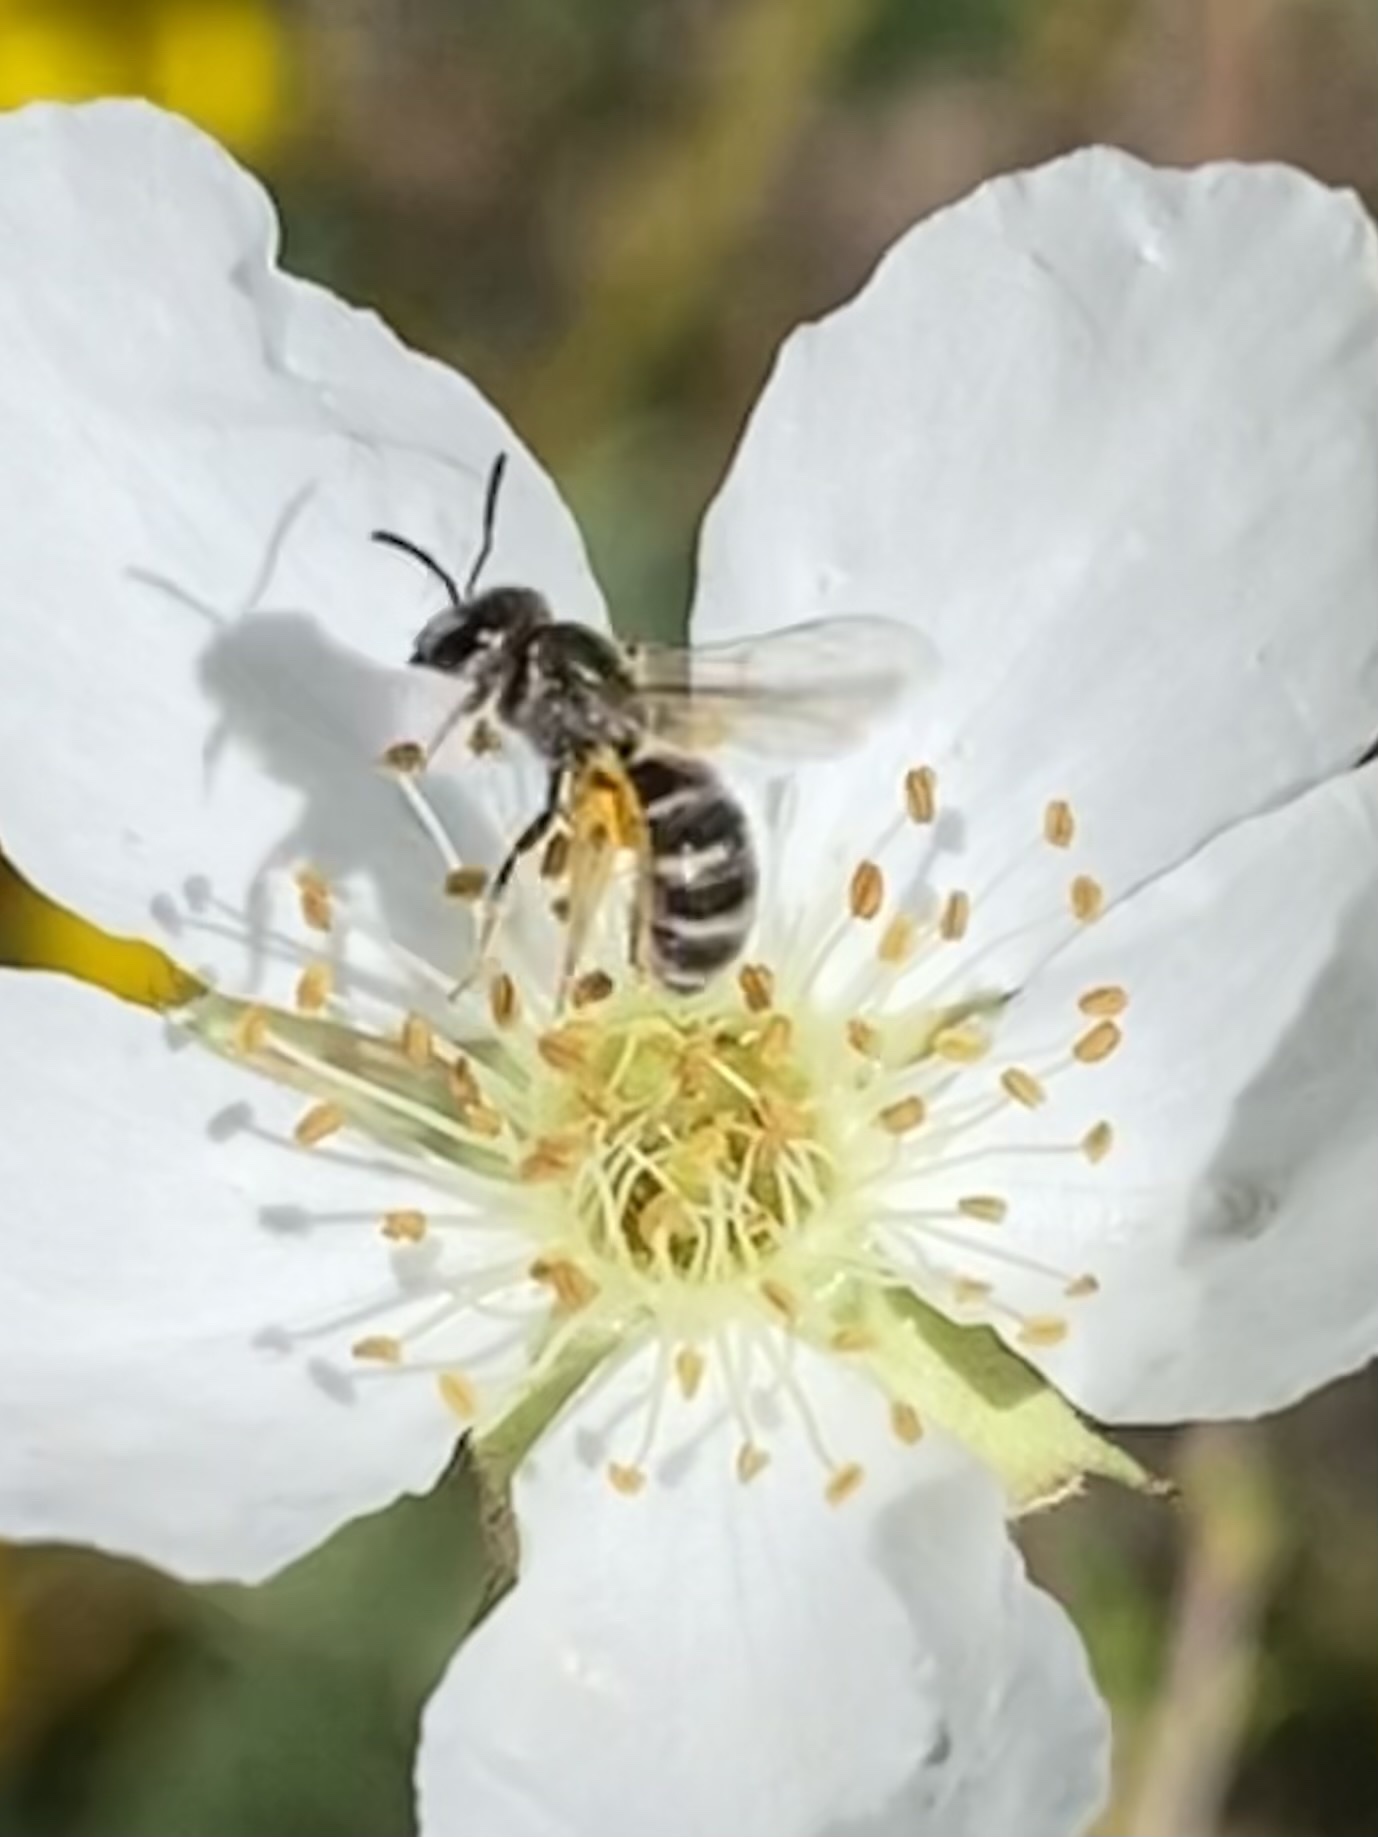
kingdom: Animalia
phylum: Arthropoda
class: Insecta
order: Hymenoptera
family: Halictidae
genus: Halictus
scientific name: Halictus tripartitus
